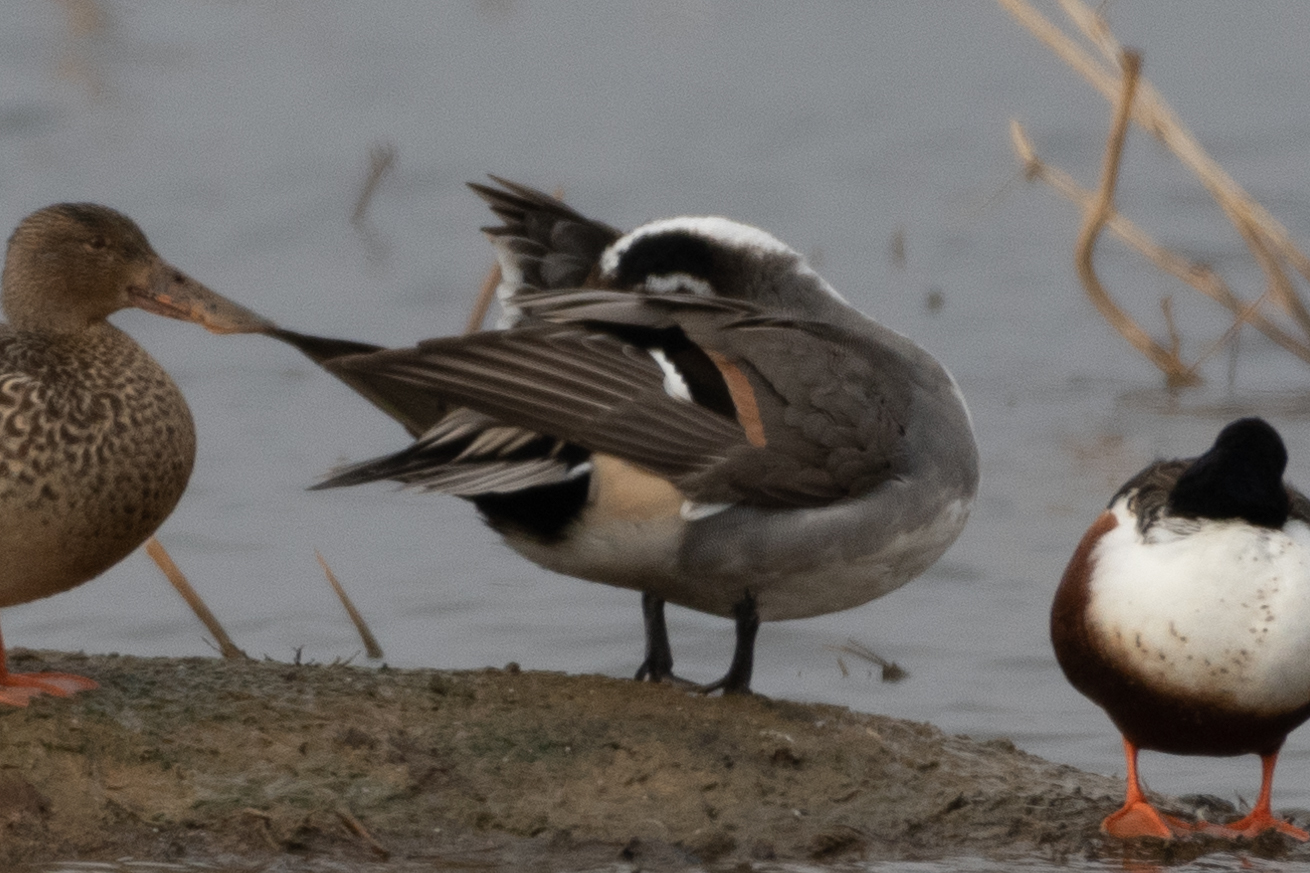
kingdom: Animalia
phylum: Chordata
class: Aves
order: Anseriformes
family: Anatidae
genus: Anas
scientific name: Anas acuta
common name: Northern pintail
